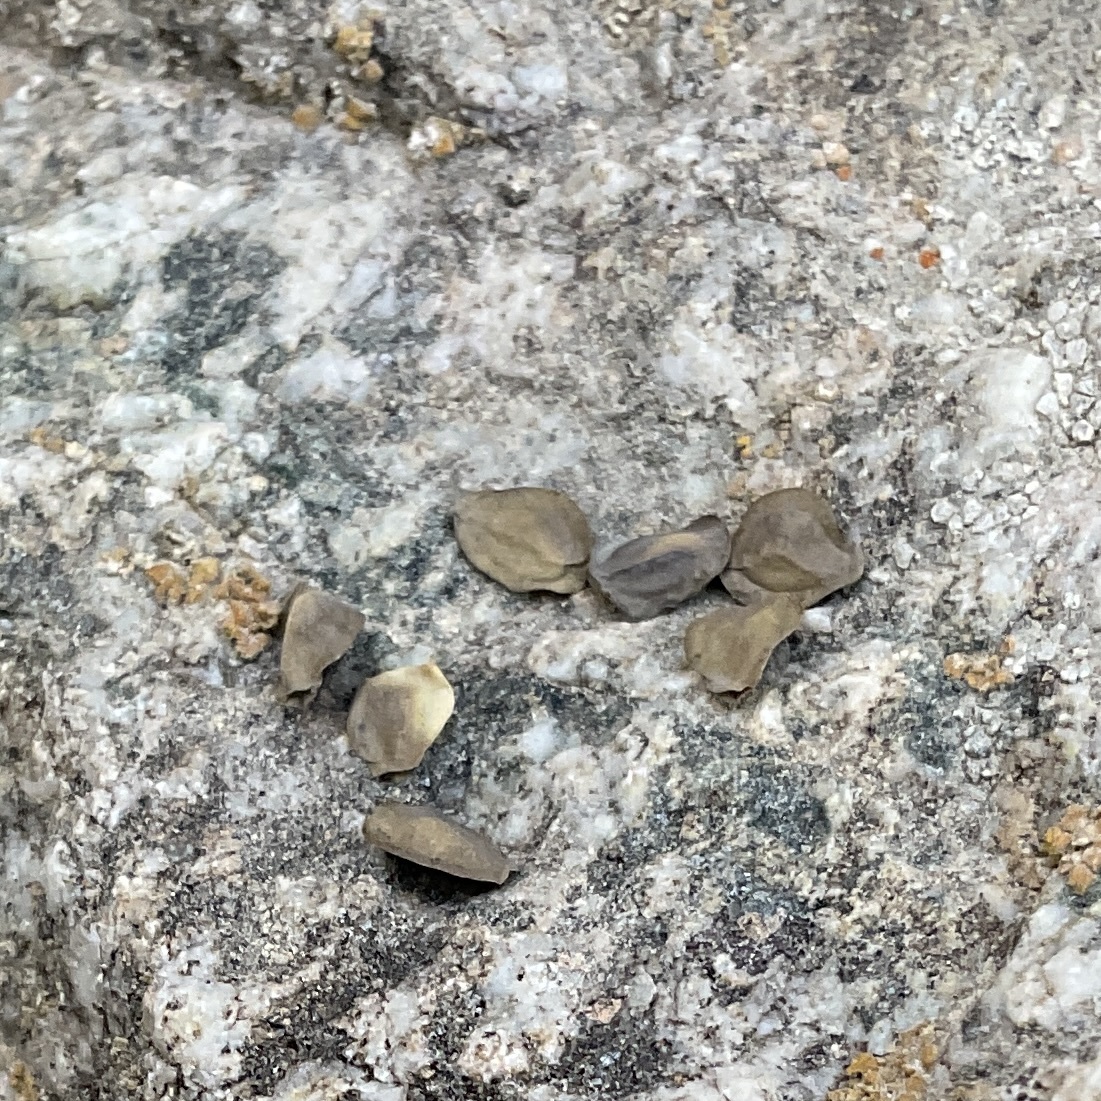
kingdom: Plantae
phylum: Tracheophyta
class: Magnoliopsida
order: Cornales
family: Loasaceae
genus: Mentzelia
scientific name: Mentzelia laevicaulis
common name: Smooth-stem blazingstar
